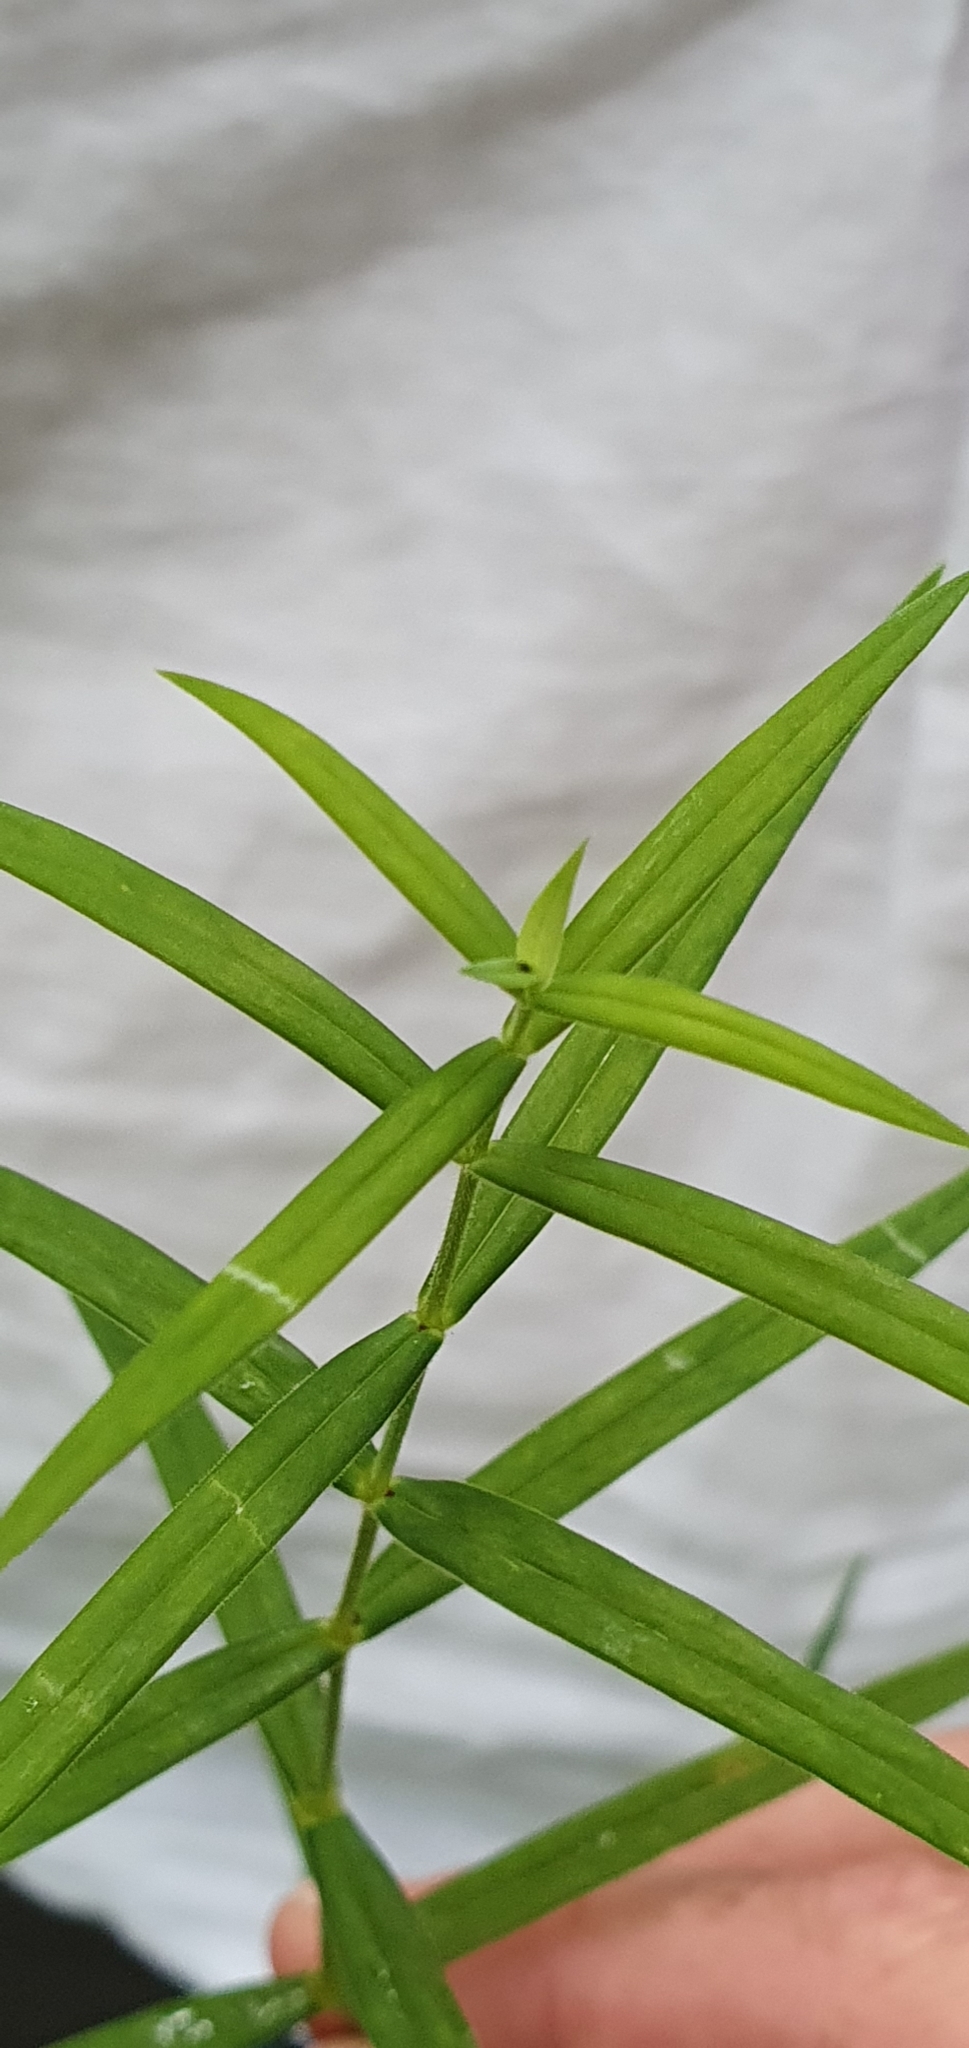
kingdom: Plantae
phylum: Tracheophyta
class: Magnoliopsida
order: Caryophyllales
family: Caryophyllaceae
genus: Rabelera
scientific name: Rabelera holostea
